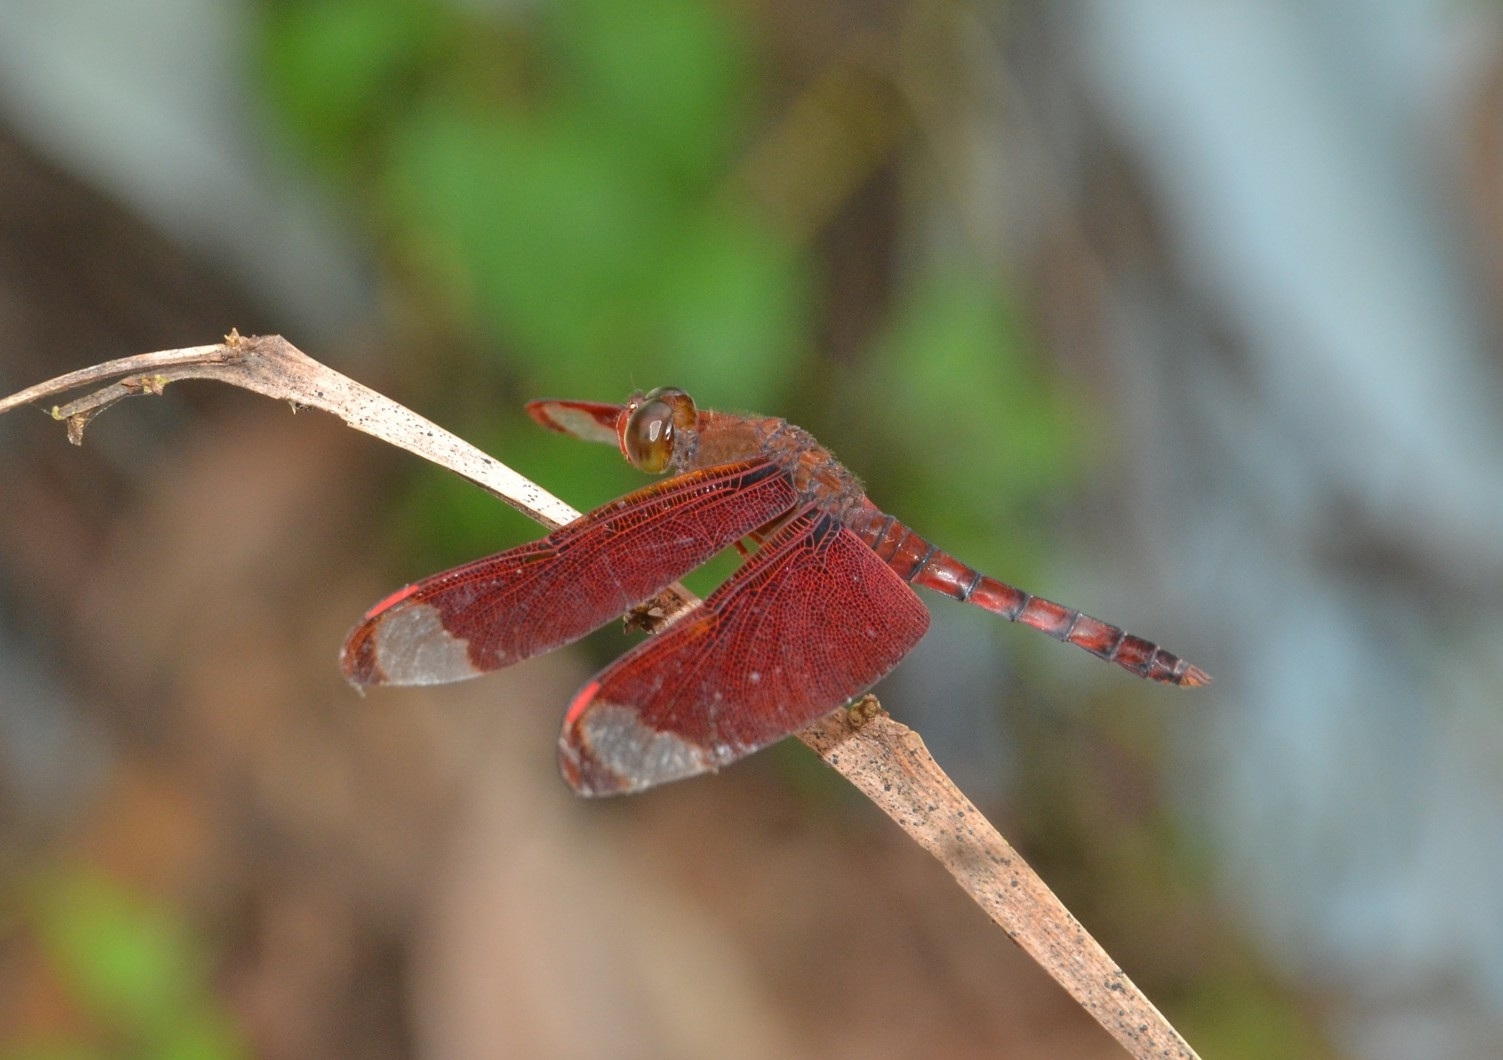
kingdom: Animalia
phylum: Arthropoda
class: Insecta
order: Odonata
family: Libellulidae
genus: Neurothemis
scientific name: Neurothemis fulvia
